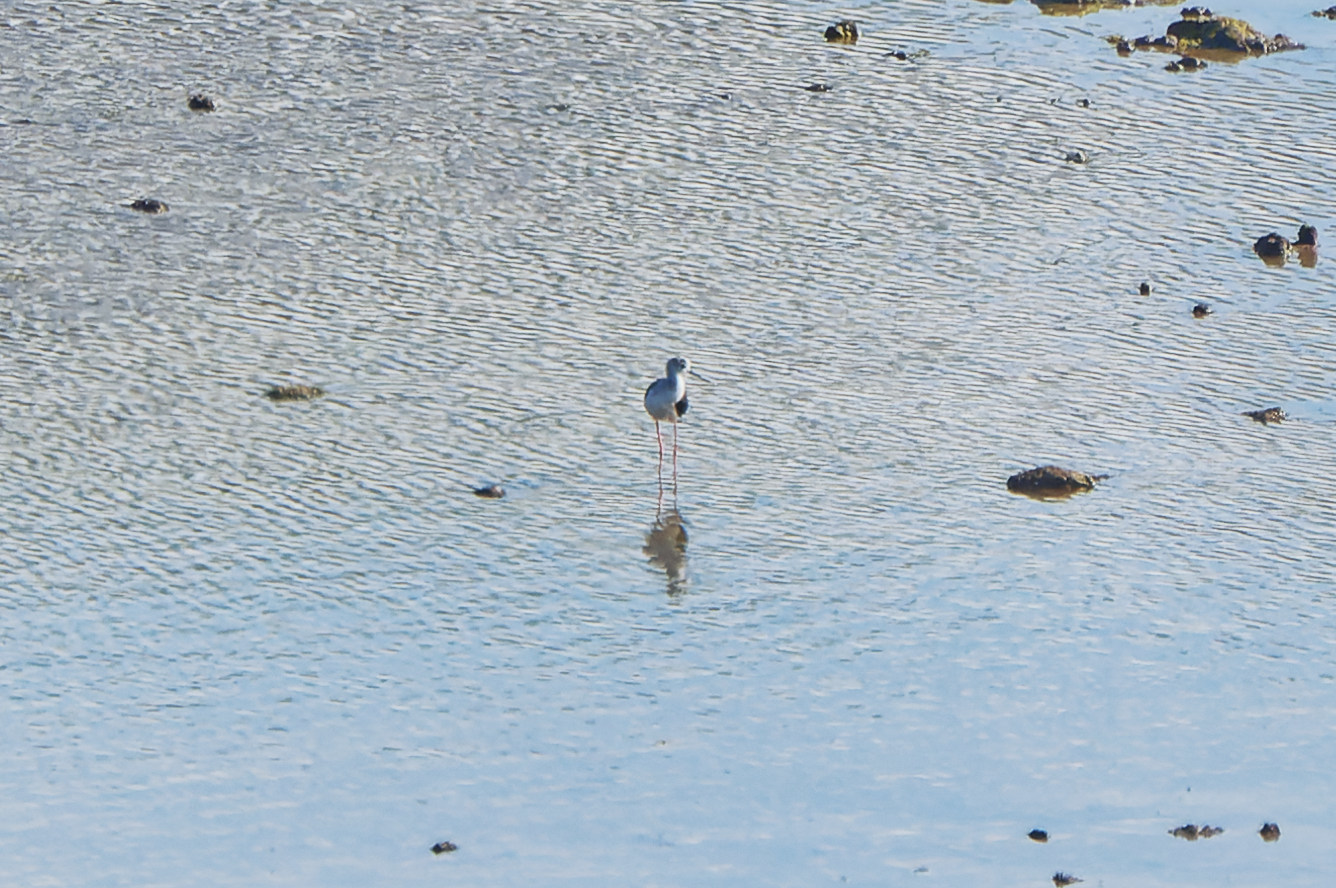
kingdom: Animalia
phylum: Chordata
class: Aves
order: Charadriiformes
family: Recurvirostridae
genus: Himantopus
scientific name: Himantopus himantopus
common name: Black-winged stilt
